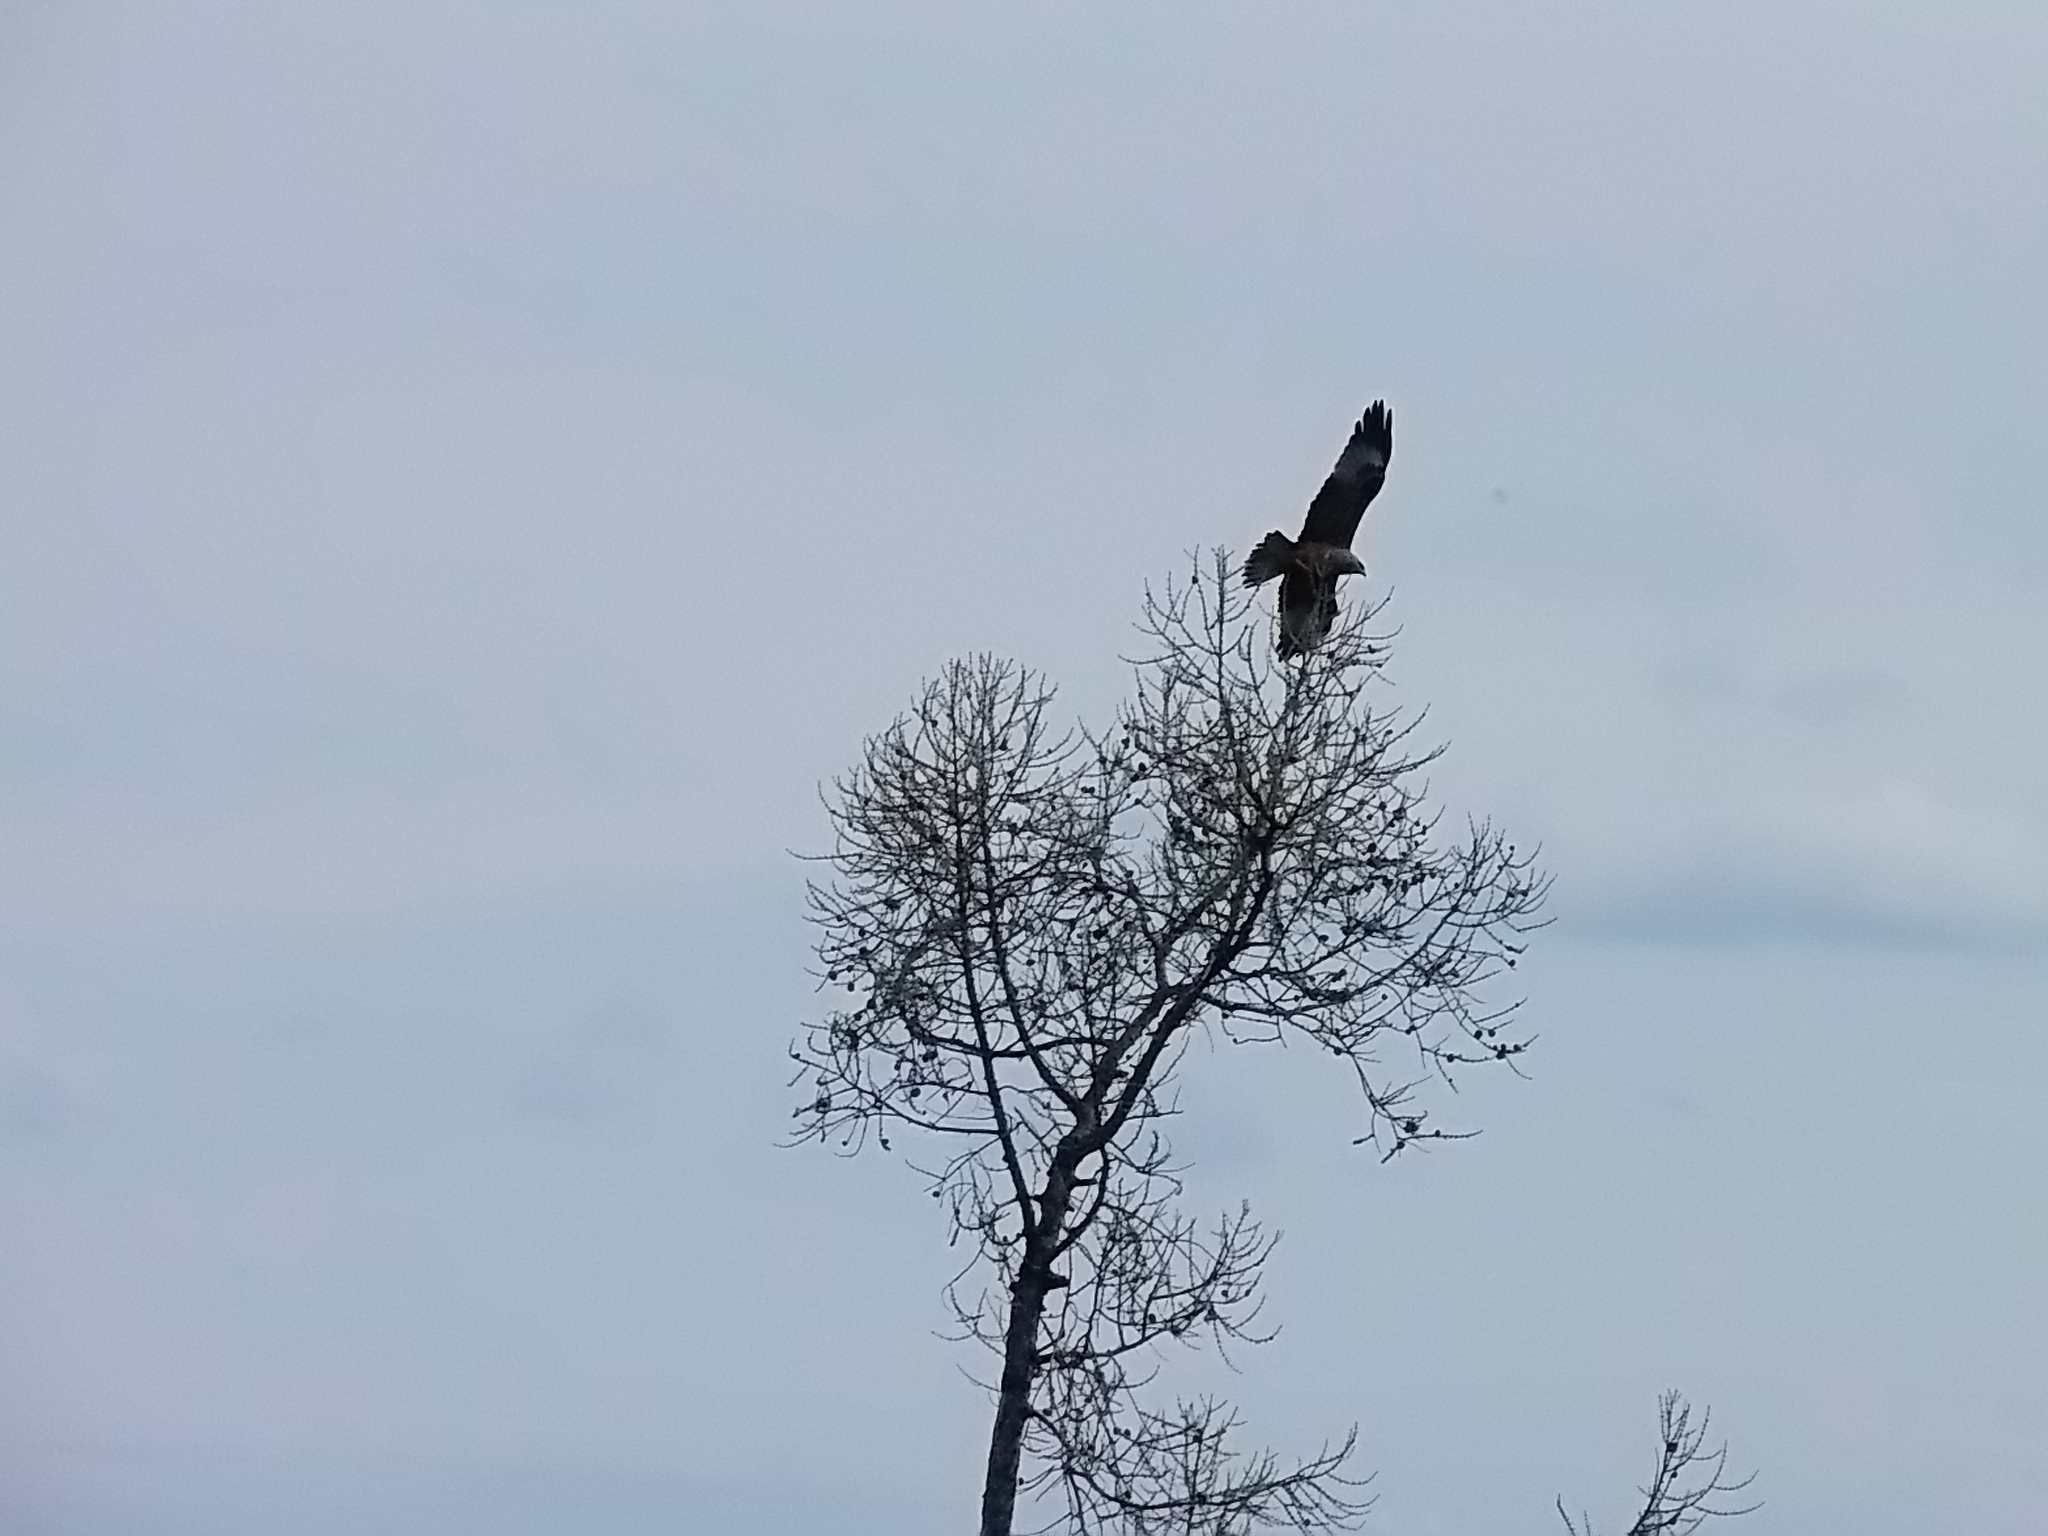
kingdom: Animalia
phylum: Chordata
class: Aves
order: Accipitriformes
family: Accipitridae
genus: Milvus
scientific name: Milvus migrans
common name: Black kite
